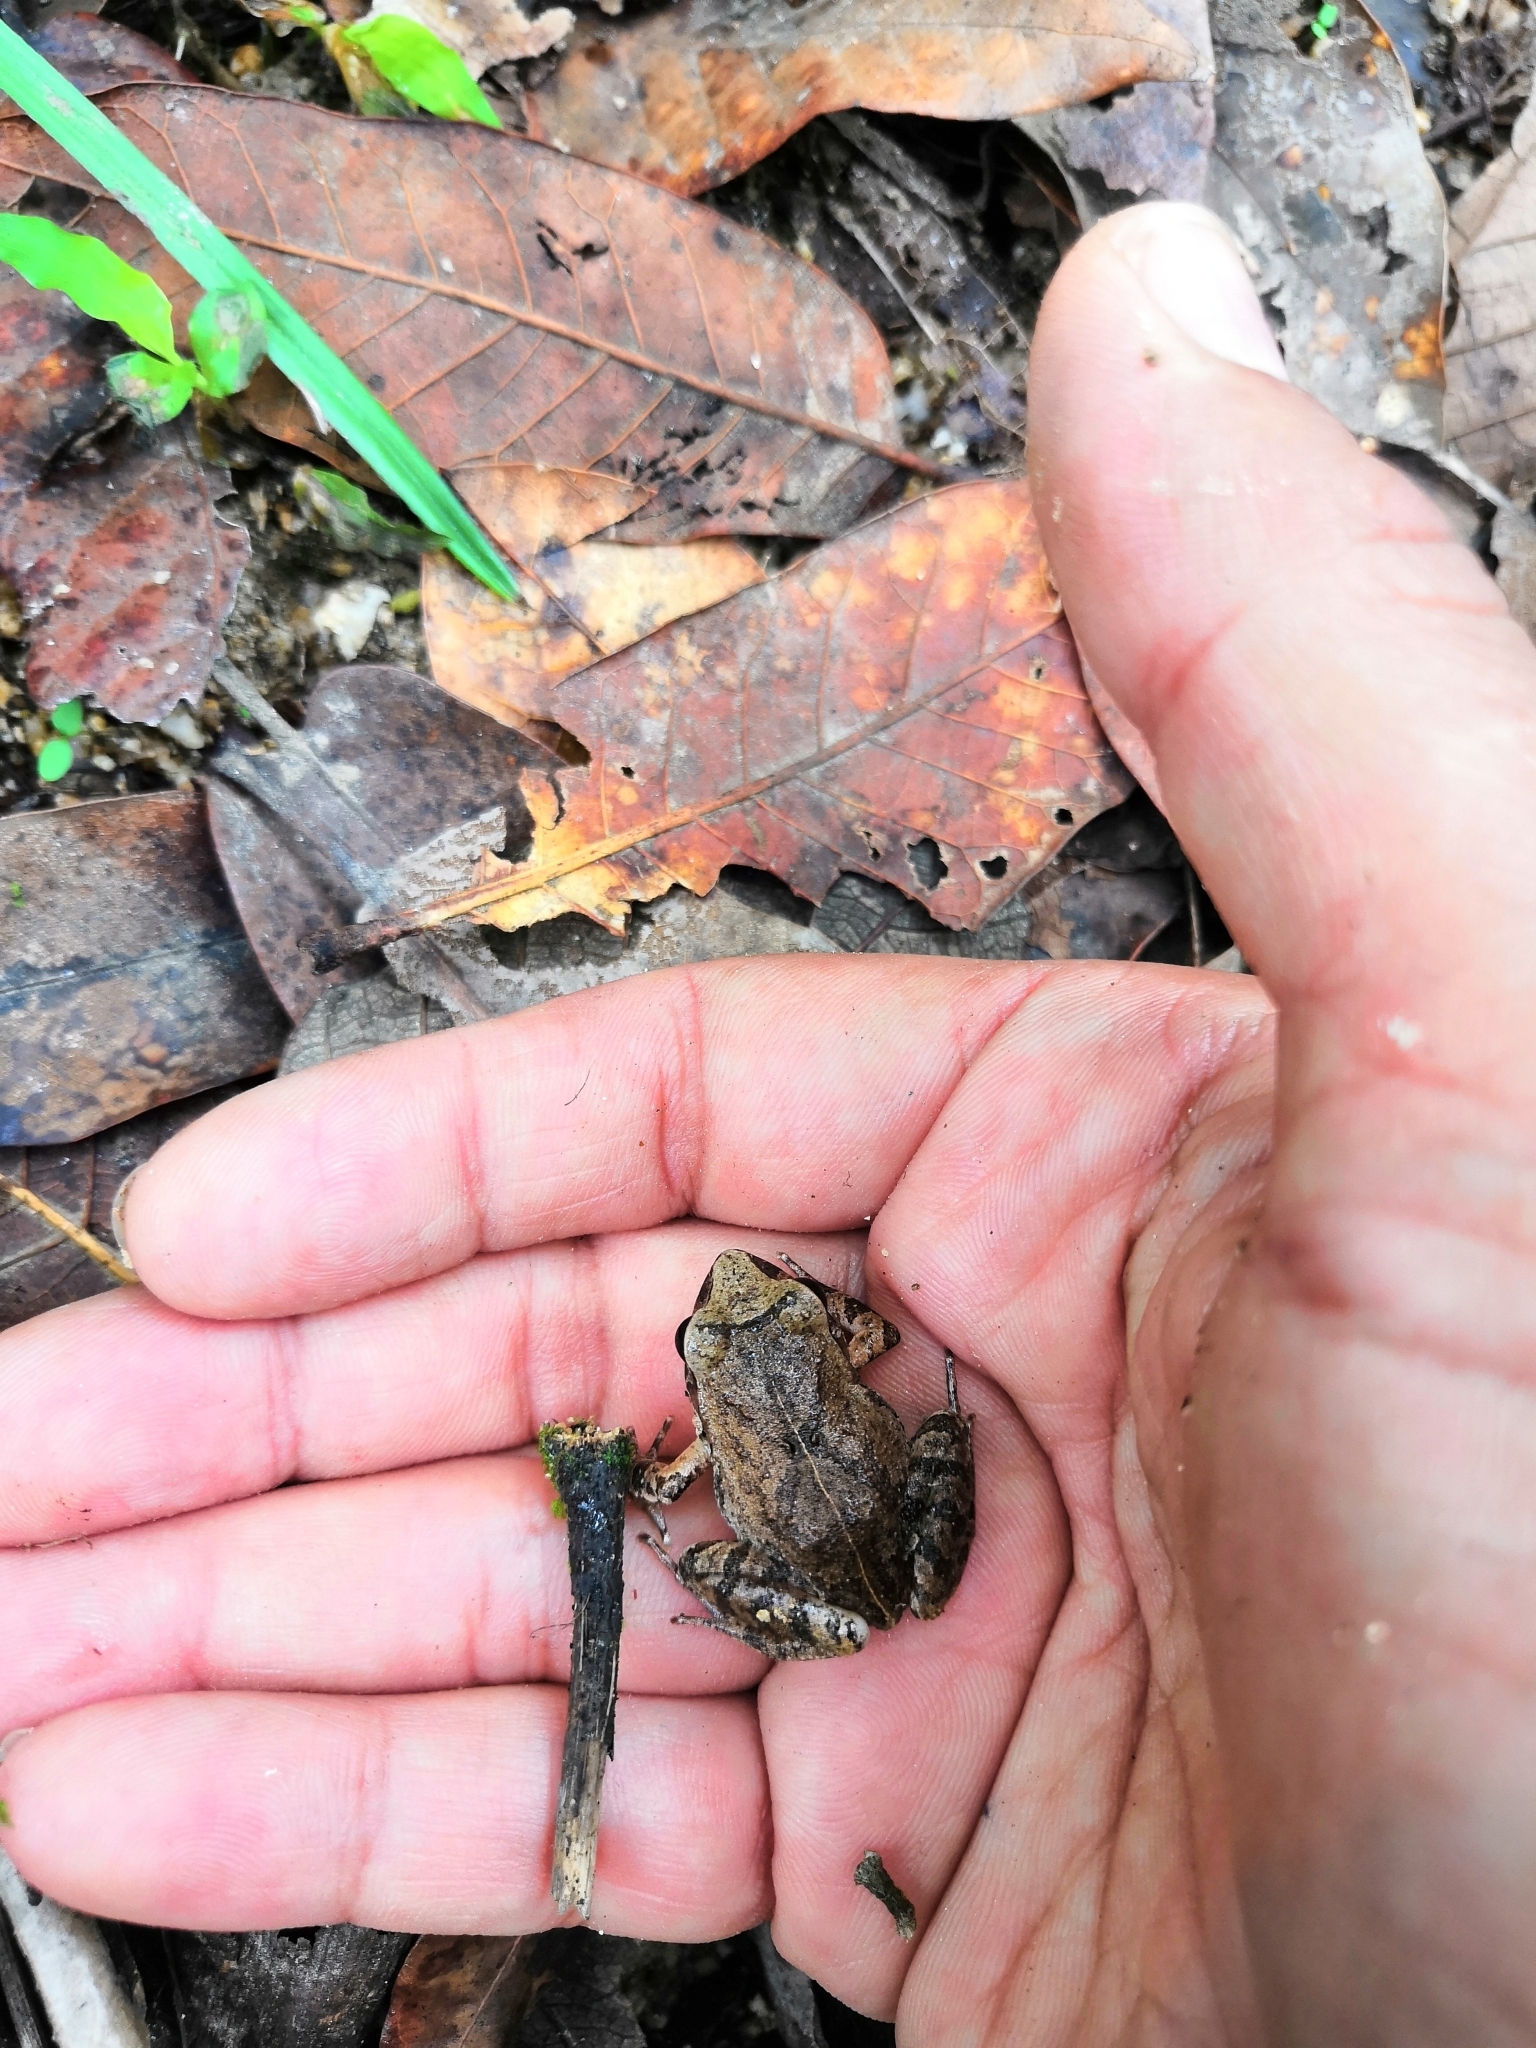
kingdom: Animalia
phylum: Chordata
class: Amphibia
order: Anura
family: Craugastoridae
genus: Craugastor
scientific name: Craugastor occidentalis
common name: Taylor's barking frog
